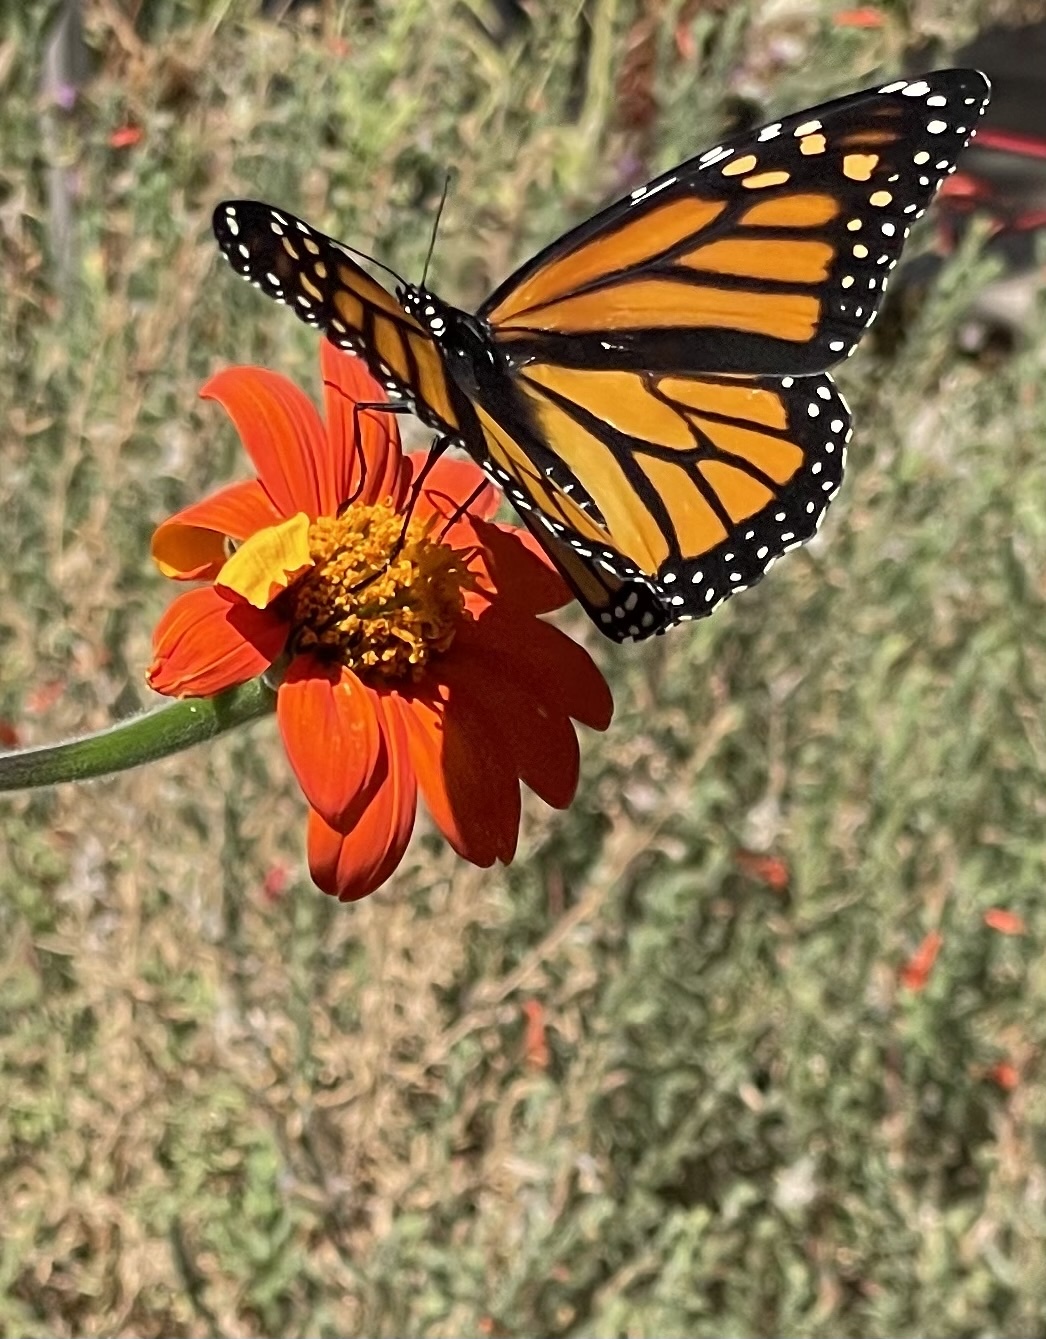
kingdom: Animalia
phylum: Arthropoda
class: Insecta
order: Lepidoptera
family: Nymphalidae
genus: Danaus
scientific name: Danaus plexippus
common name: Monarch
